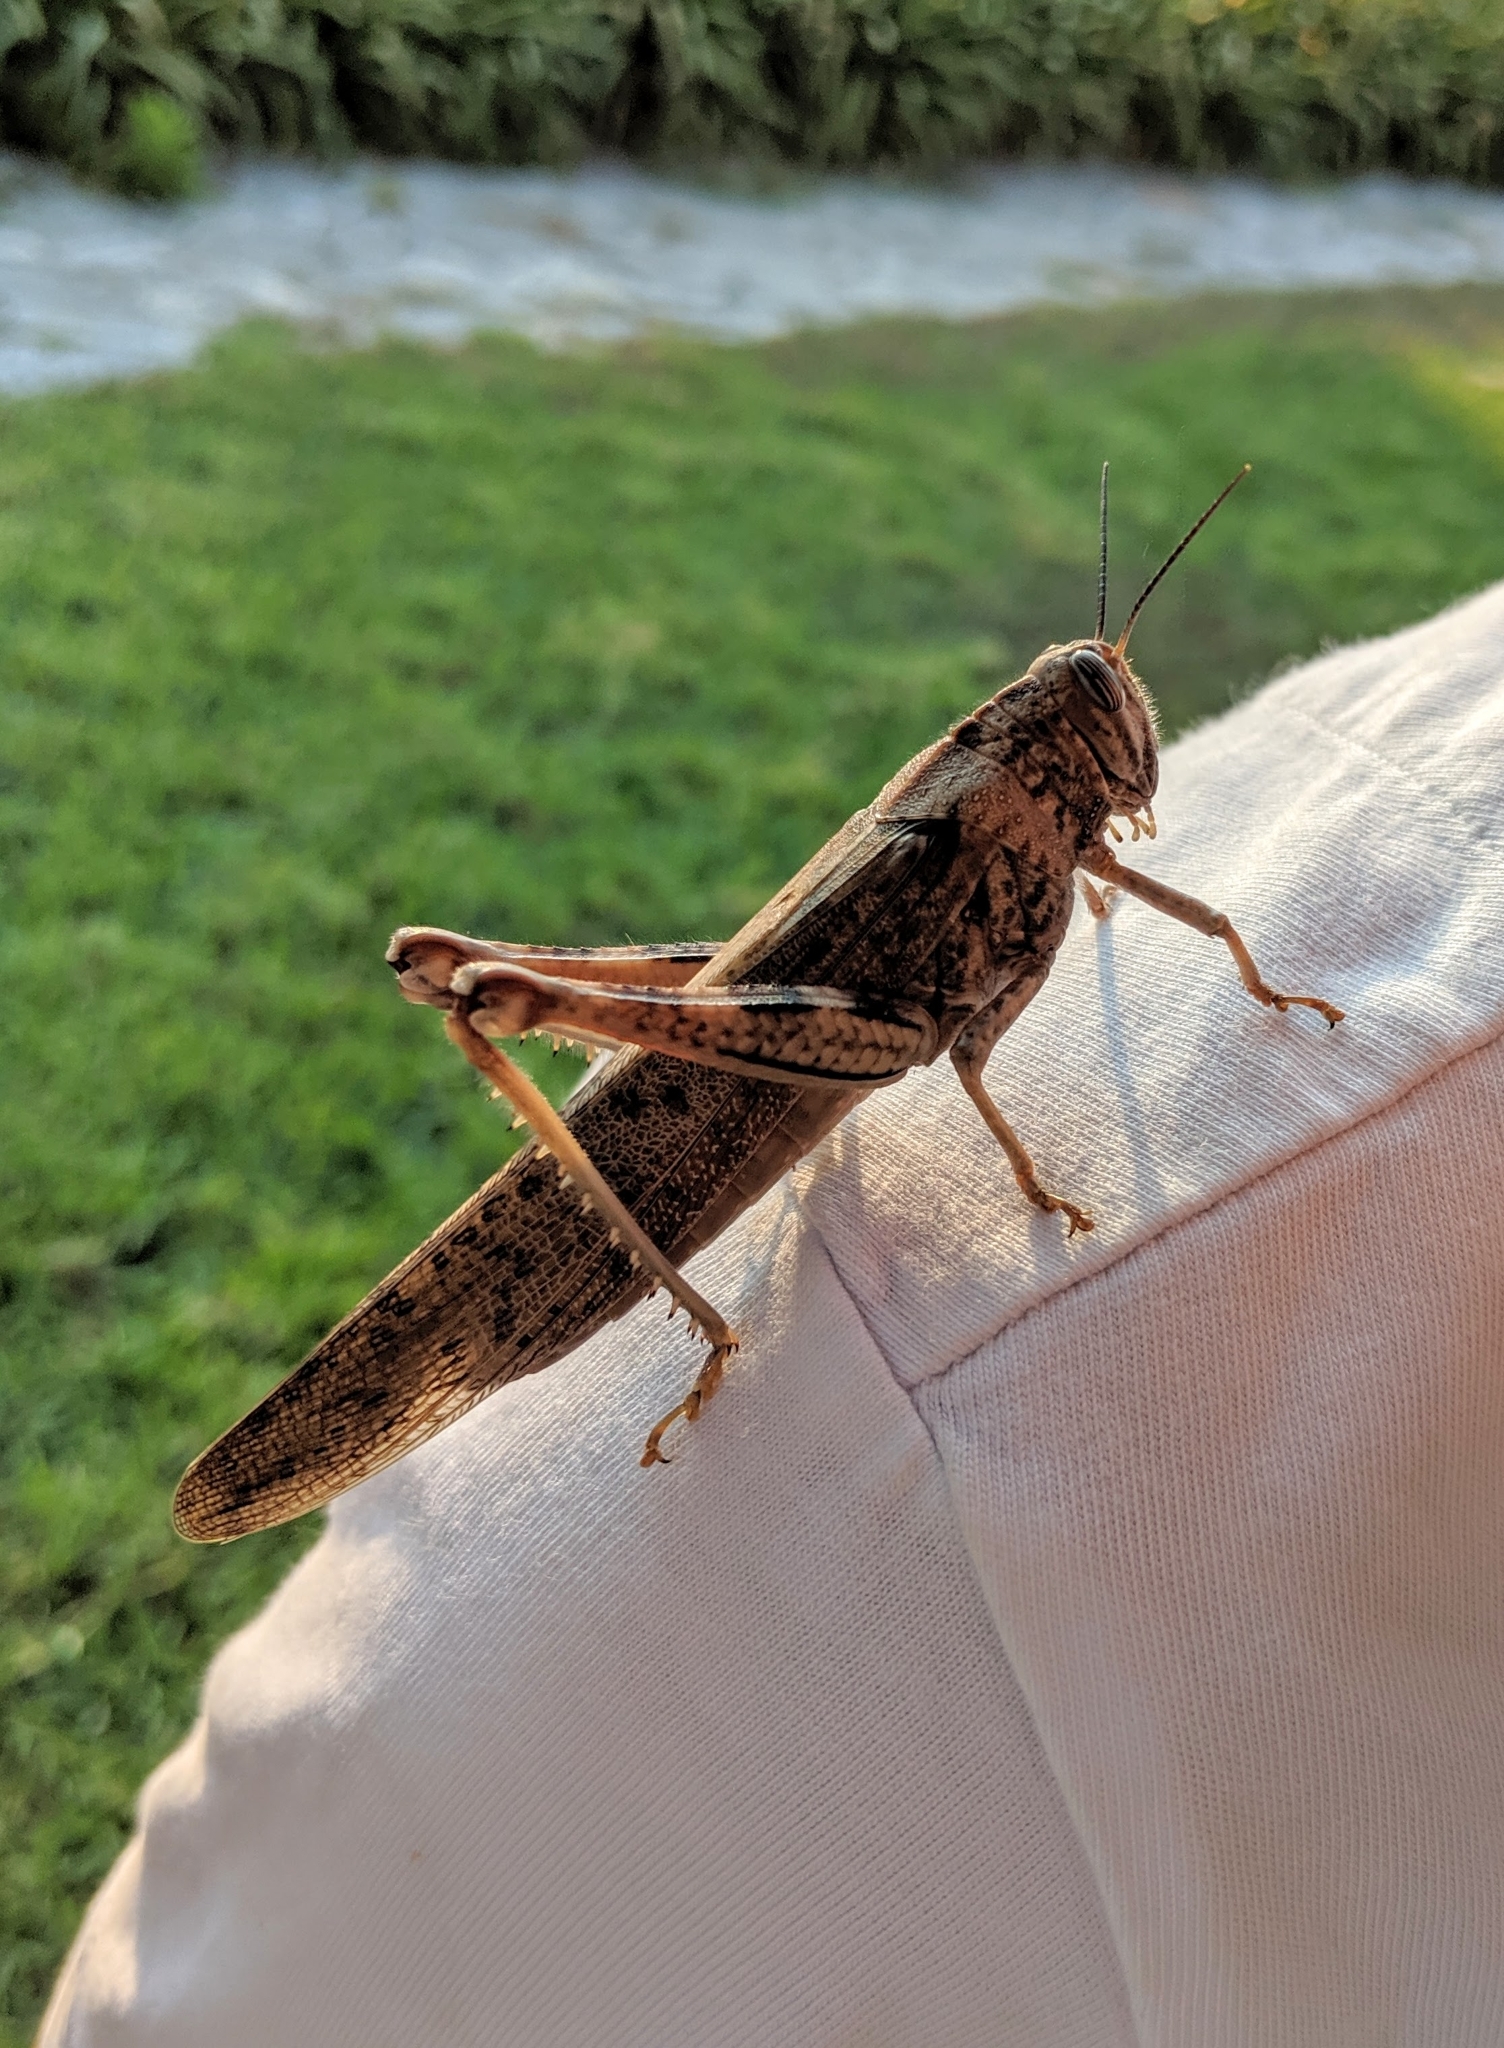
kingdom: Animalia
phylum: Arthropoda
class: Insecta
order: Orthoptera
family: Acrididae
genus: Anacridium
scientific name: Anacridium aegyptium
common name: Egyptian grasshopper
